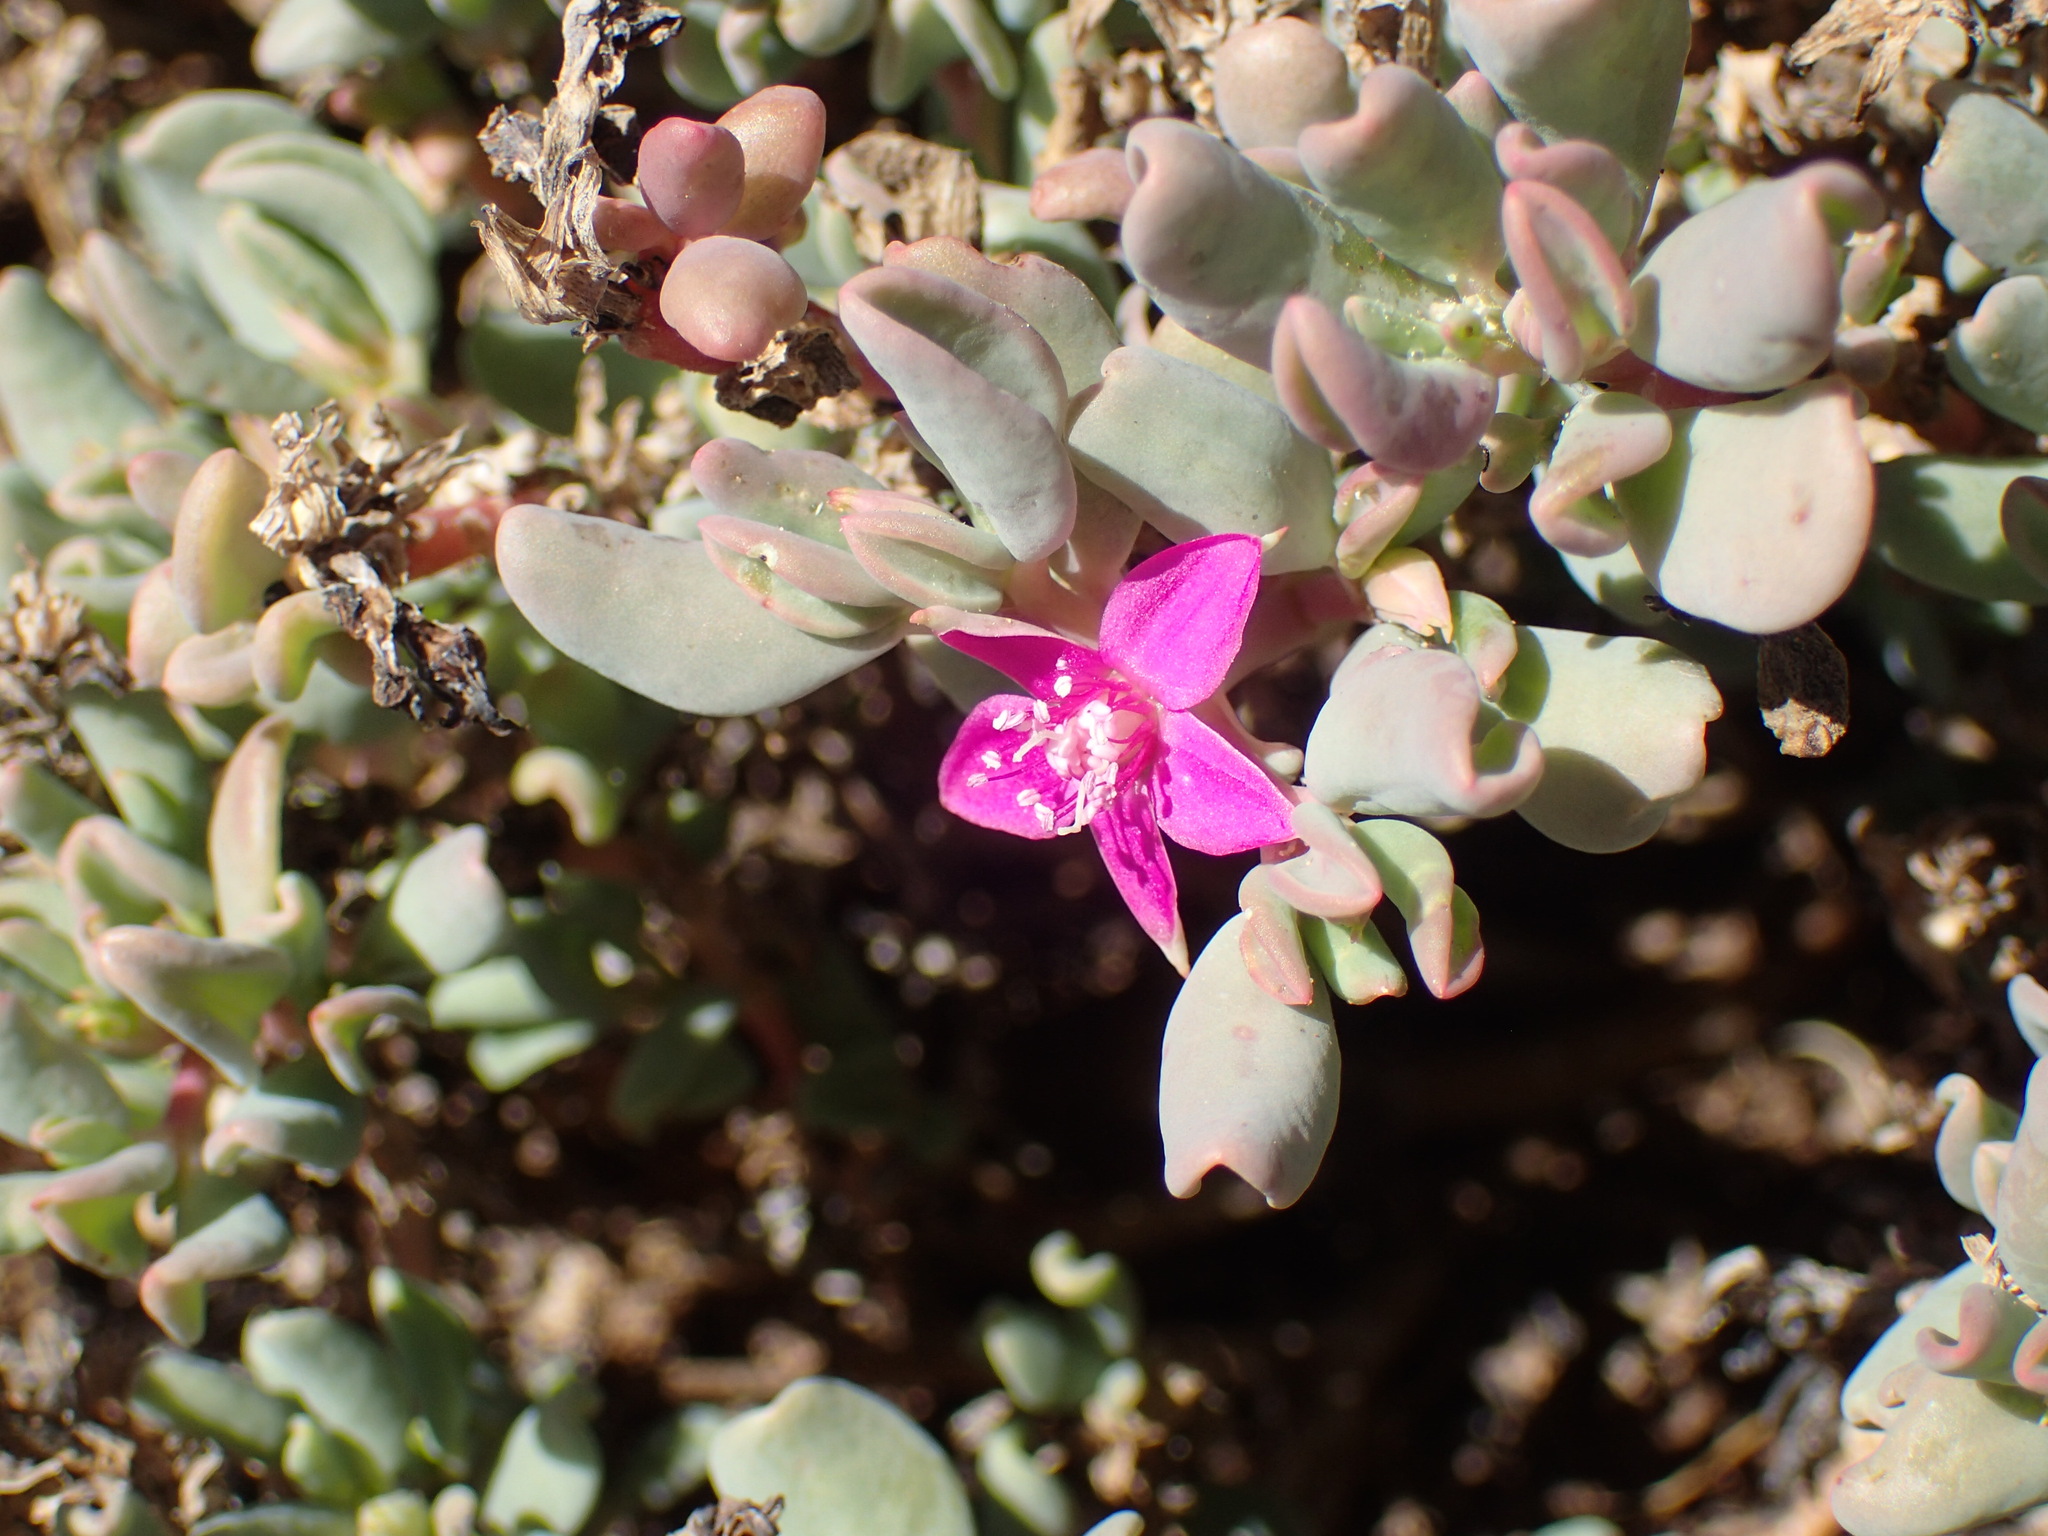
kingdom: Plantae
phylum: Tracheophyta
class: Magnoliopsida
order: Caryophyllales
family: Aizoaceae
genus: Sesuvium
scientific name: Sesuvium sesuvioides
